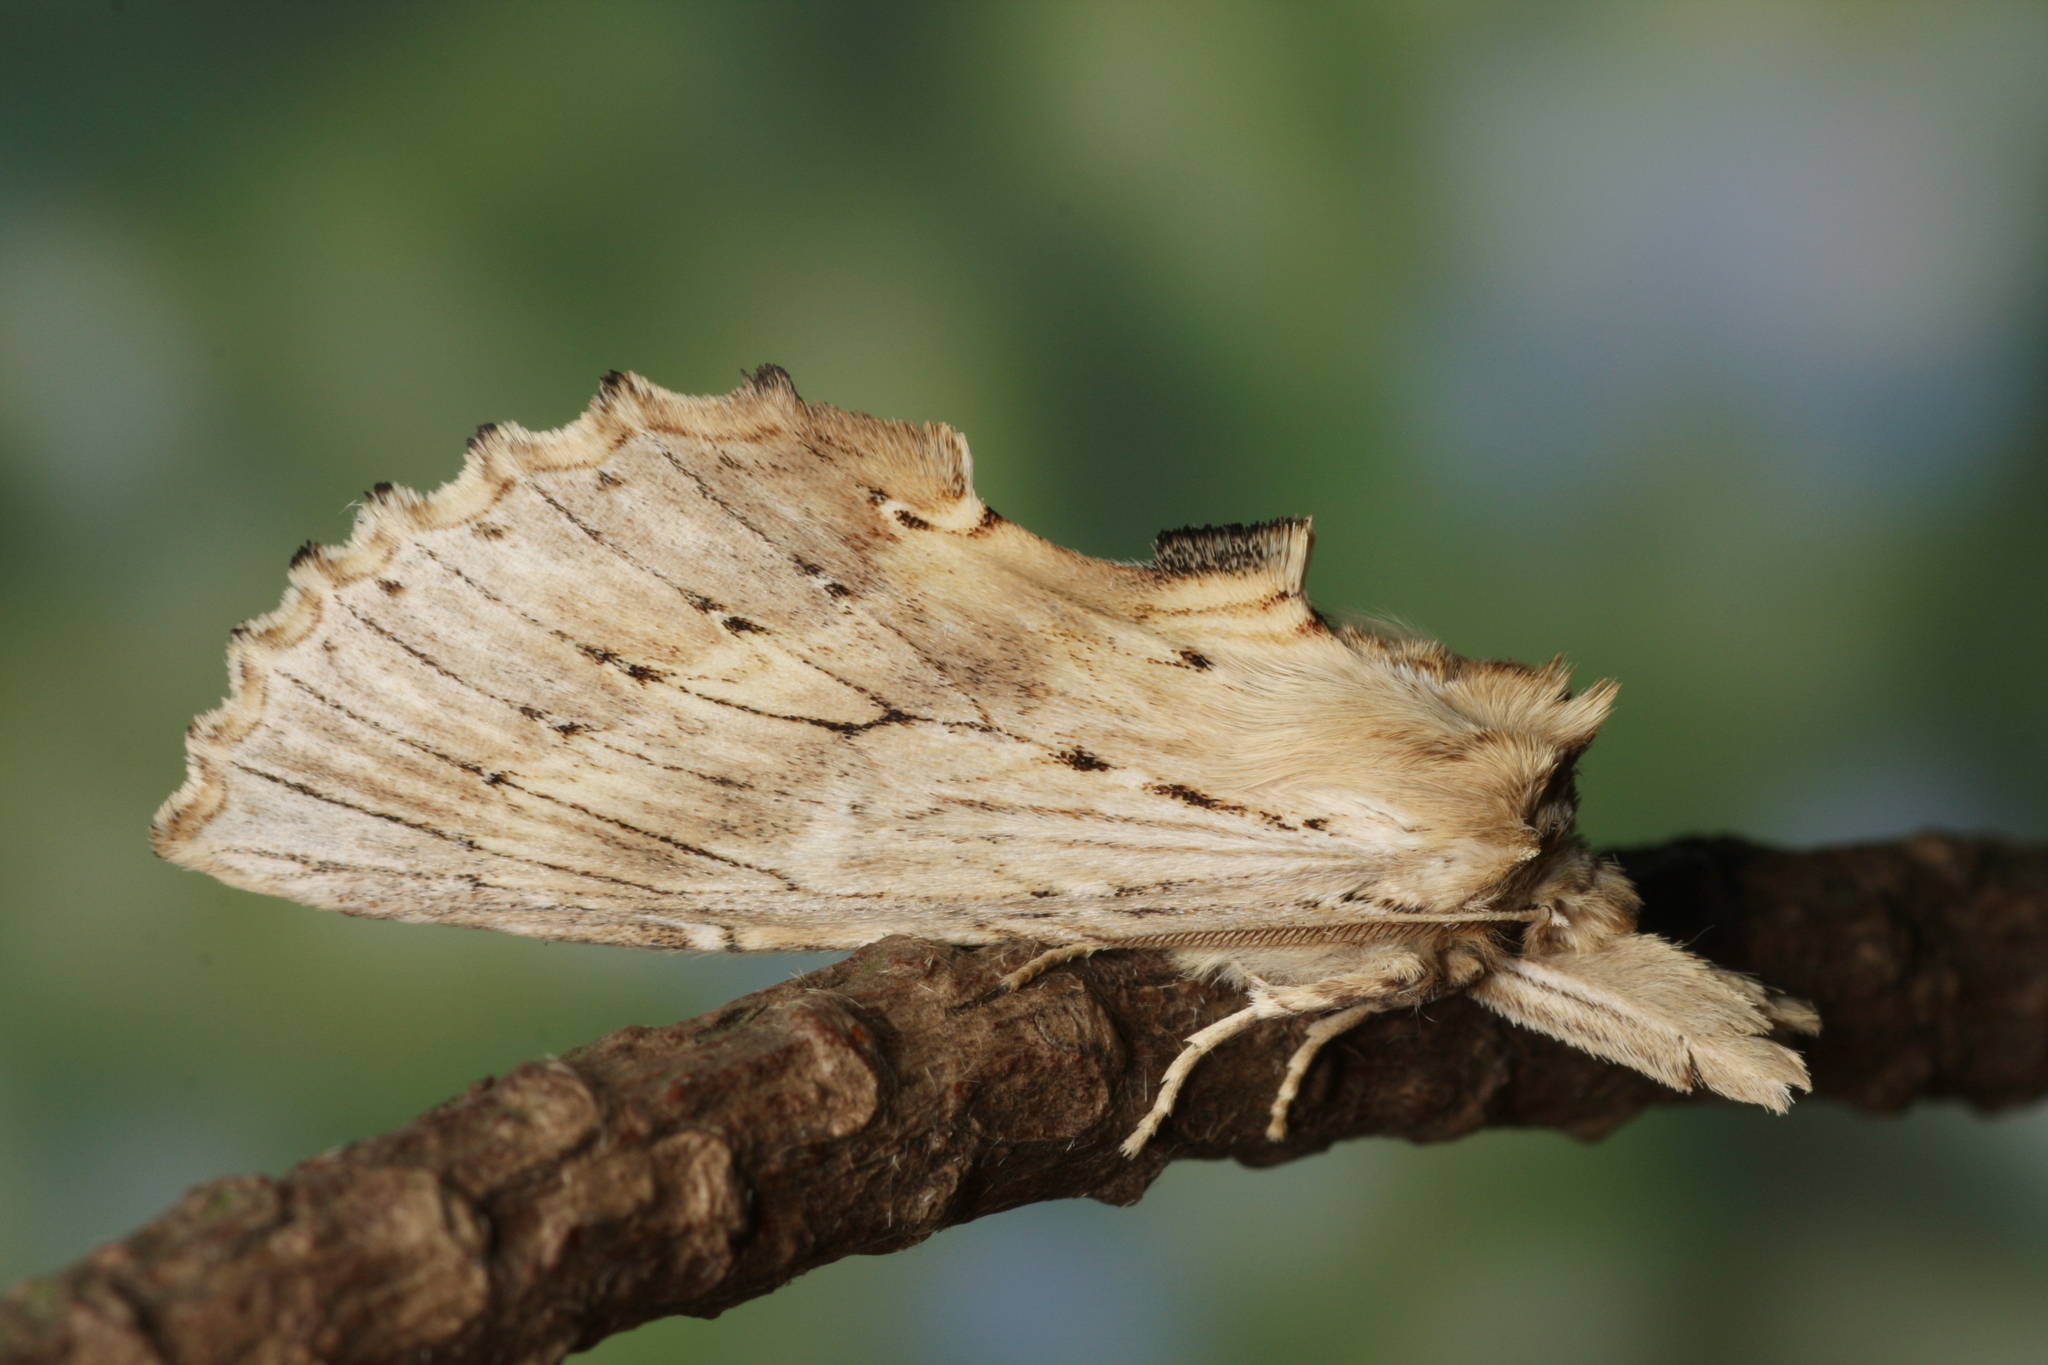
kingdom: Animalia
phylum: Arthropoda
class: Insecta
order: Lepidoptera
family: Notodontidae
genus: Pterostoma
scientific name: Pterostoma palpina
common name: Pale prominent
